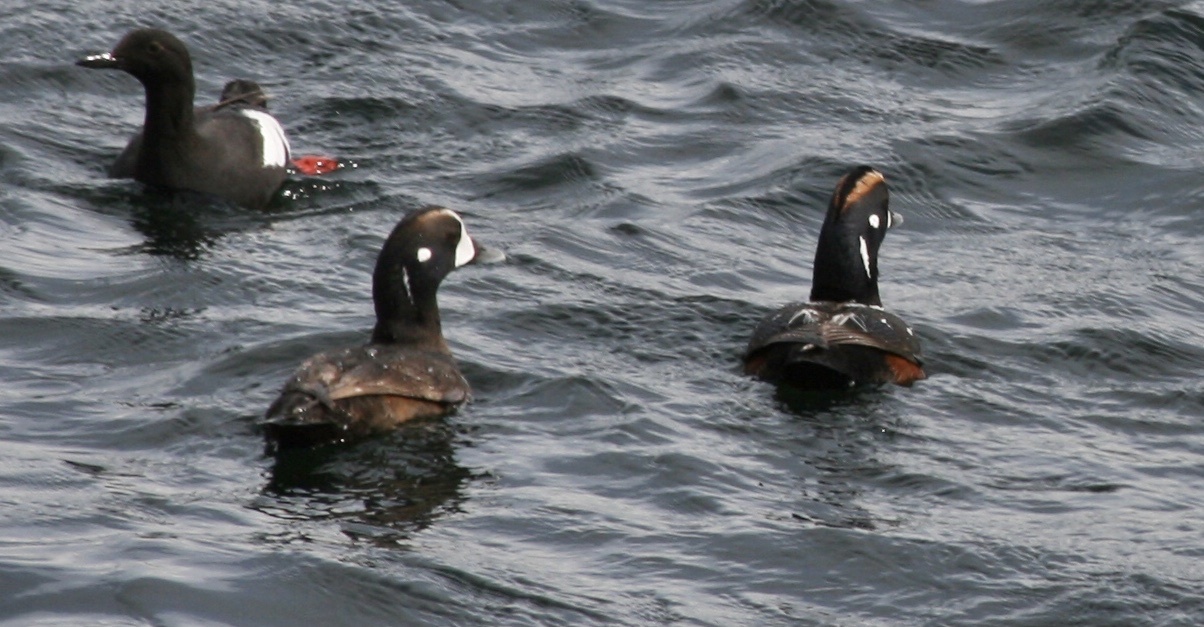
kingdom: Animalia
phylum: Chordata
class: Aves
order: Anseriformes
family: Anatidae
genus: Histrionicus
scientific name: Histrionicus histrionicus
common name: Harlequin duck
